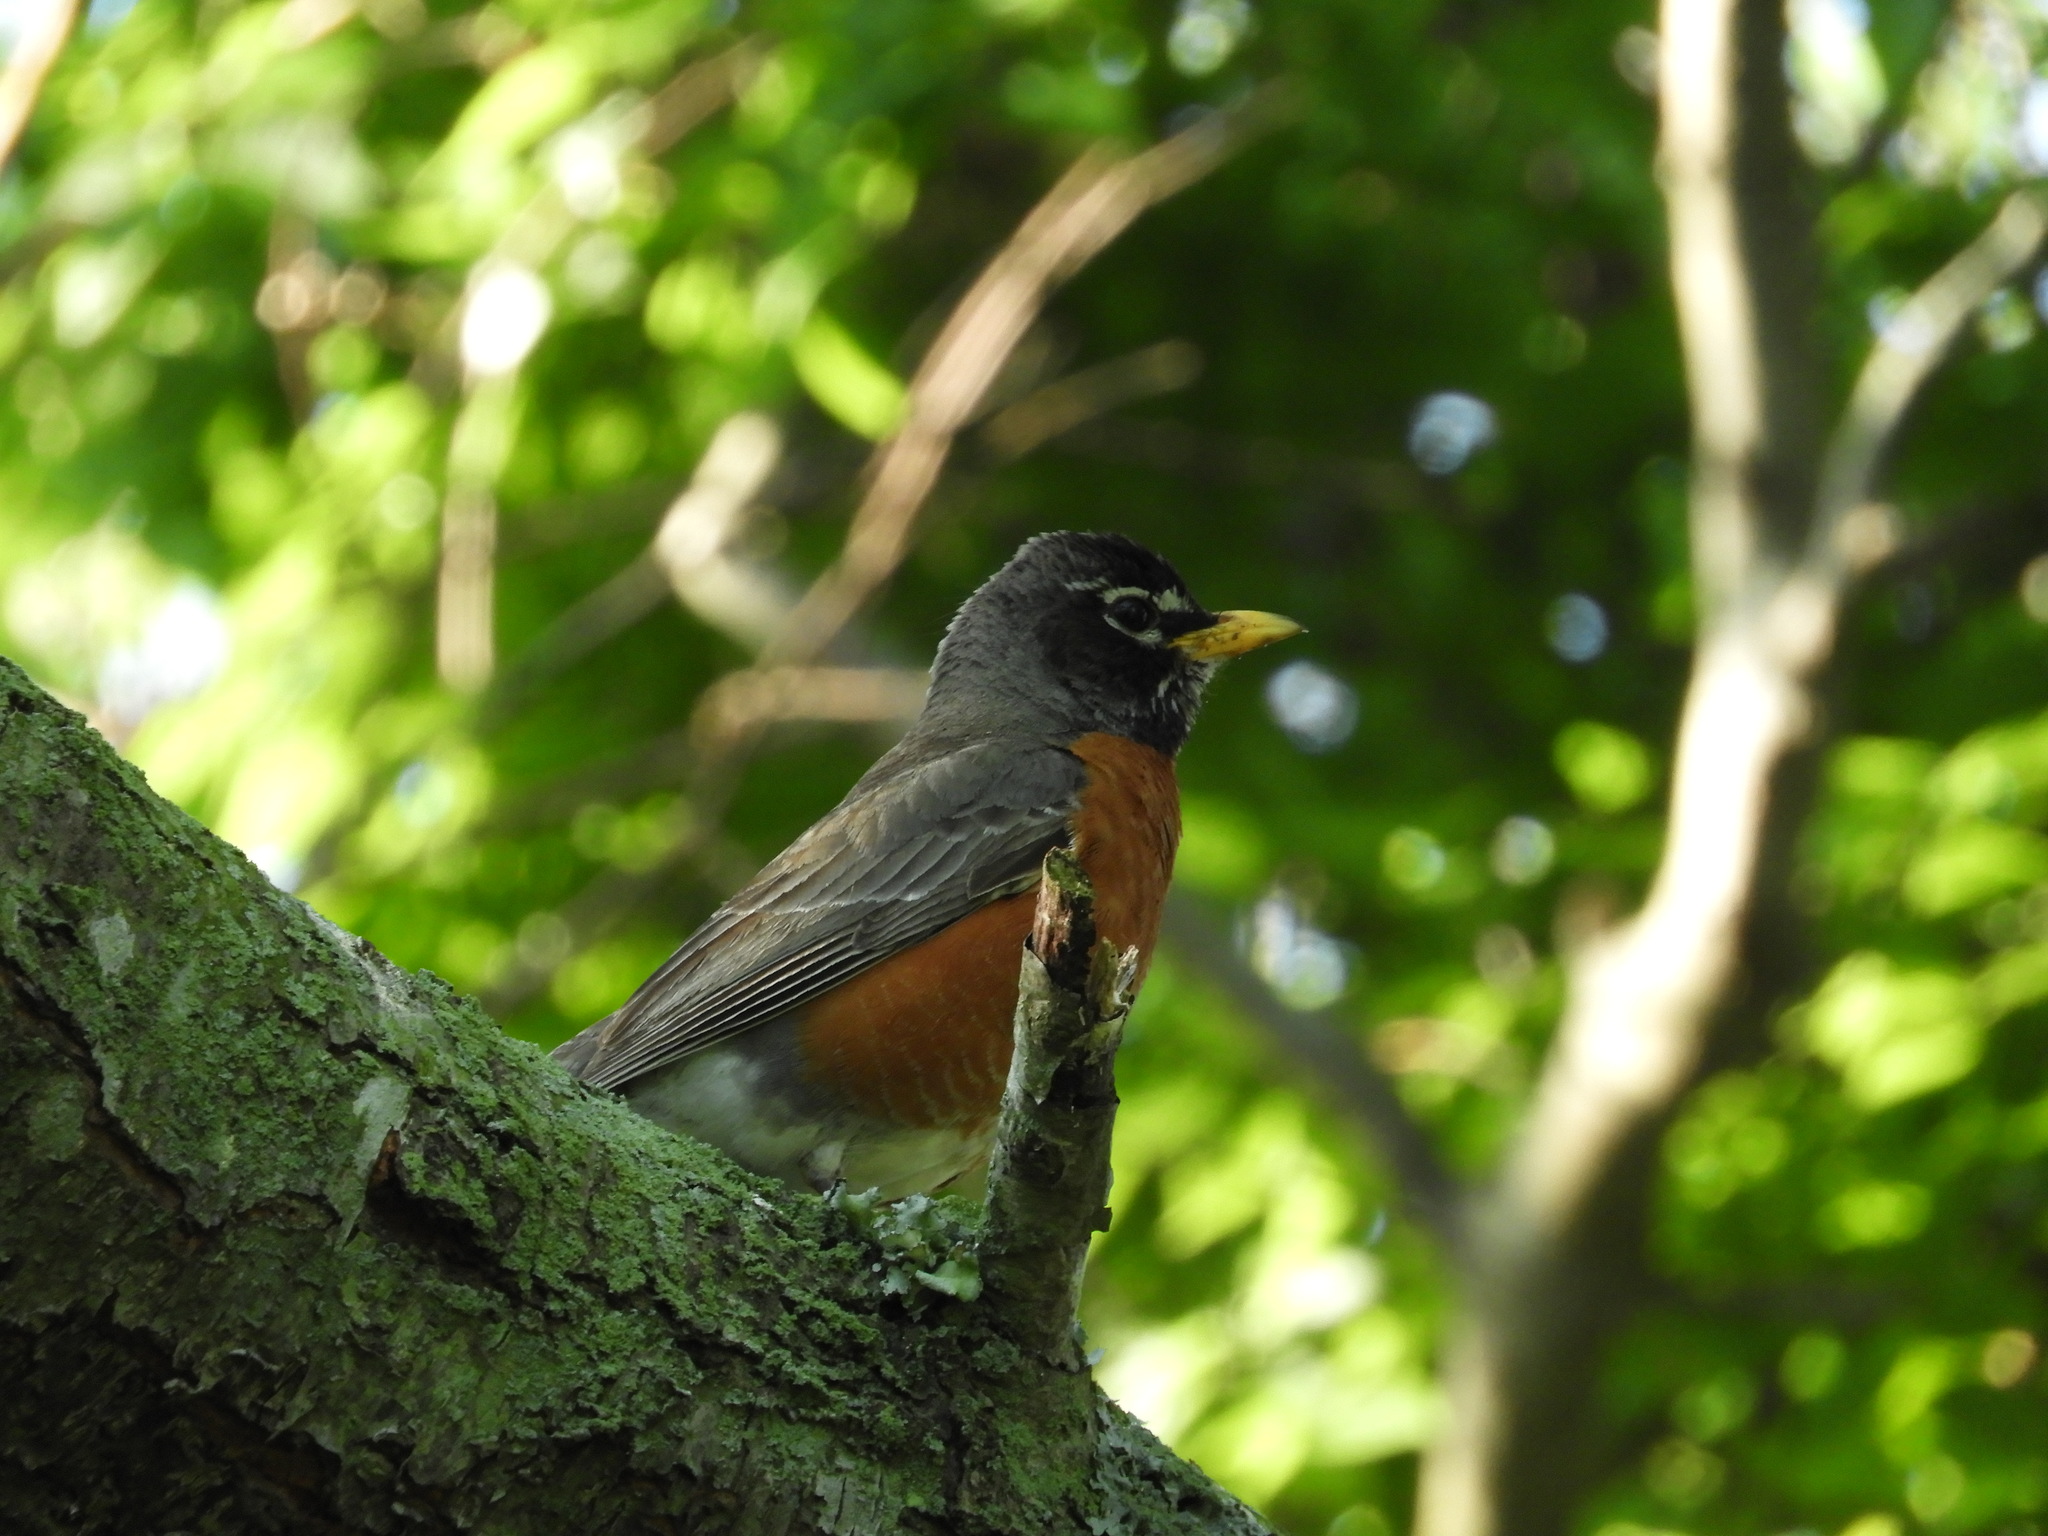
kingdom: Animalia
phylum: Chordata
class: Aves
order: Passeriformes
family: Turdidae
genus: Turdus
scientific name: Turdus migratorius
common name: American robin
